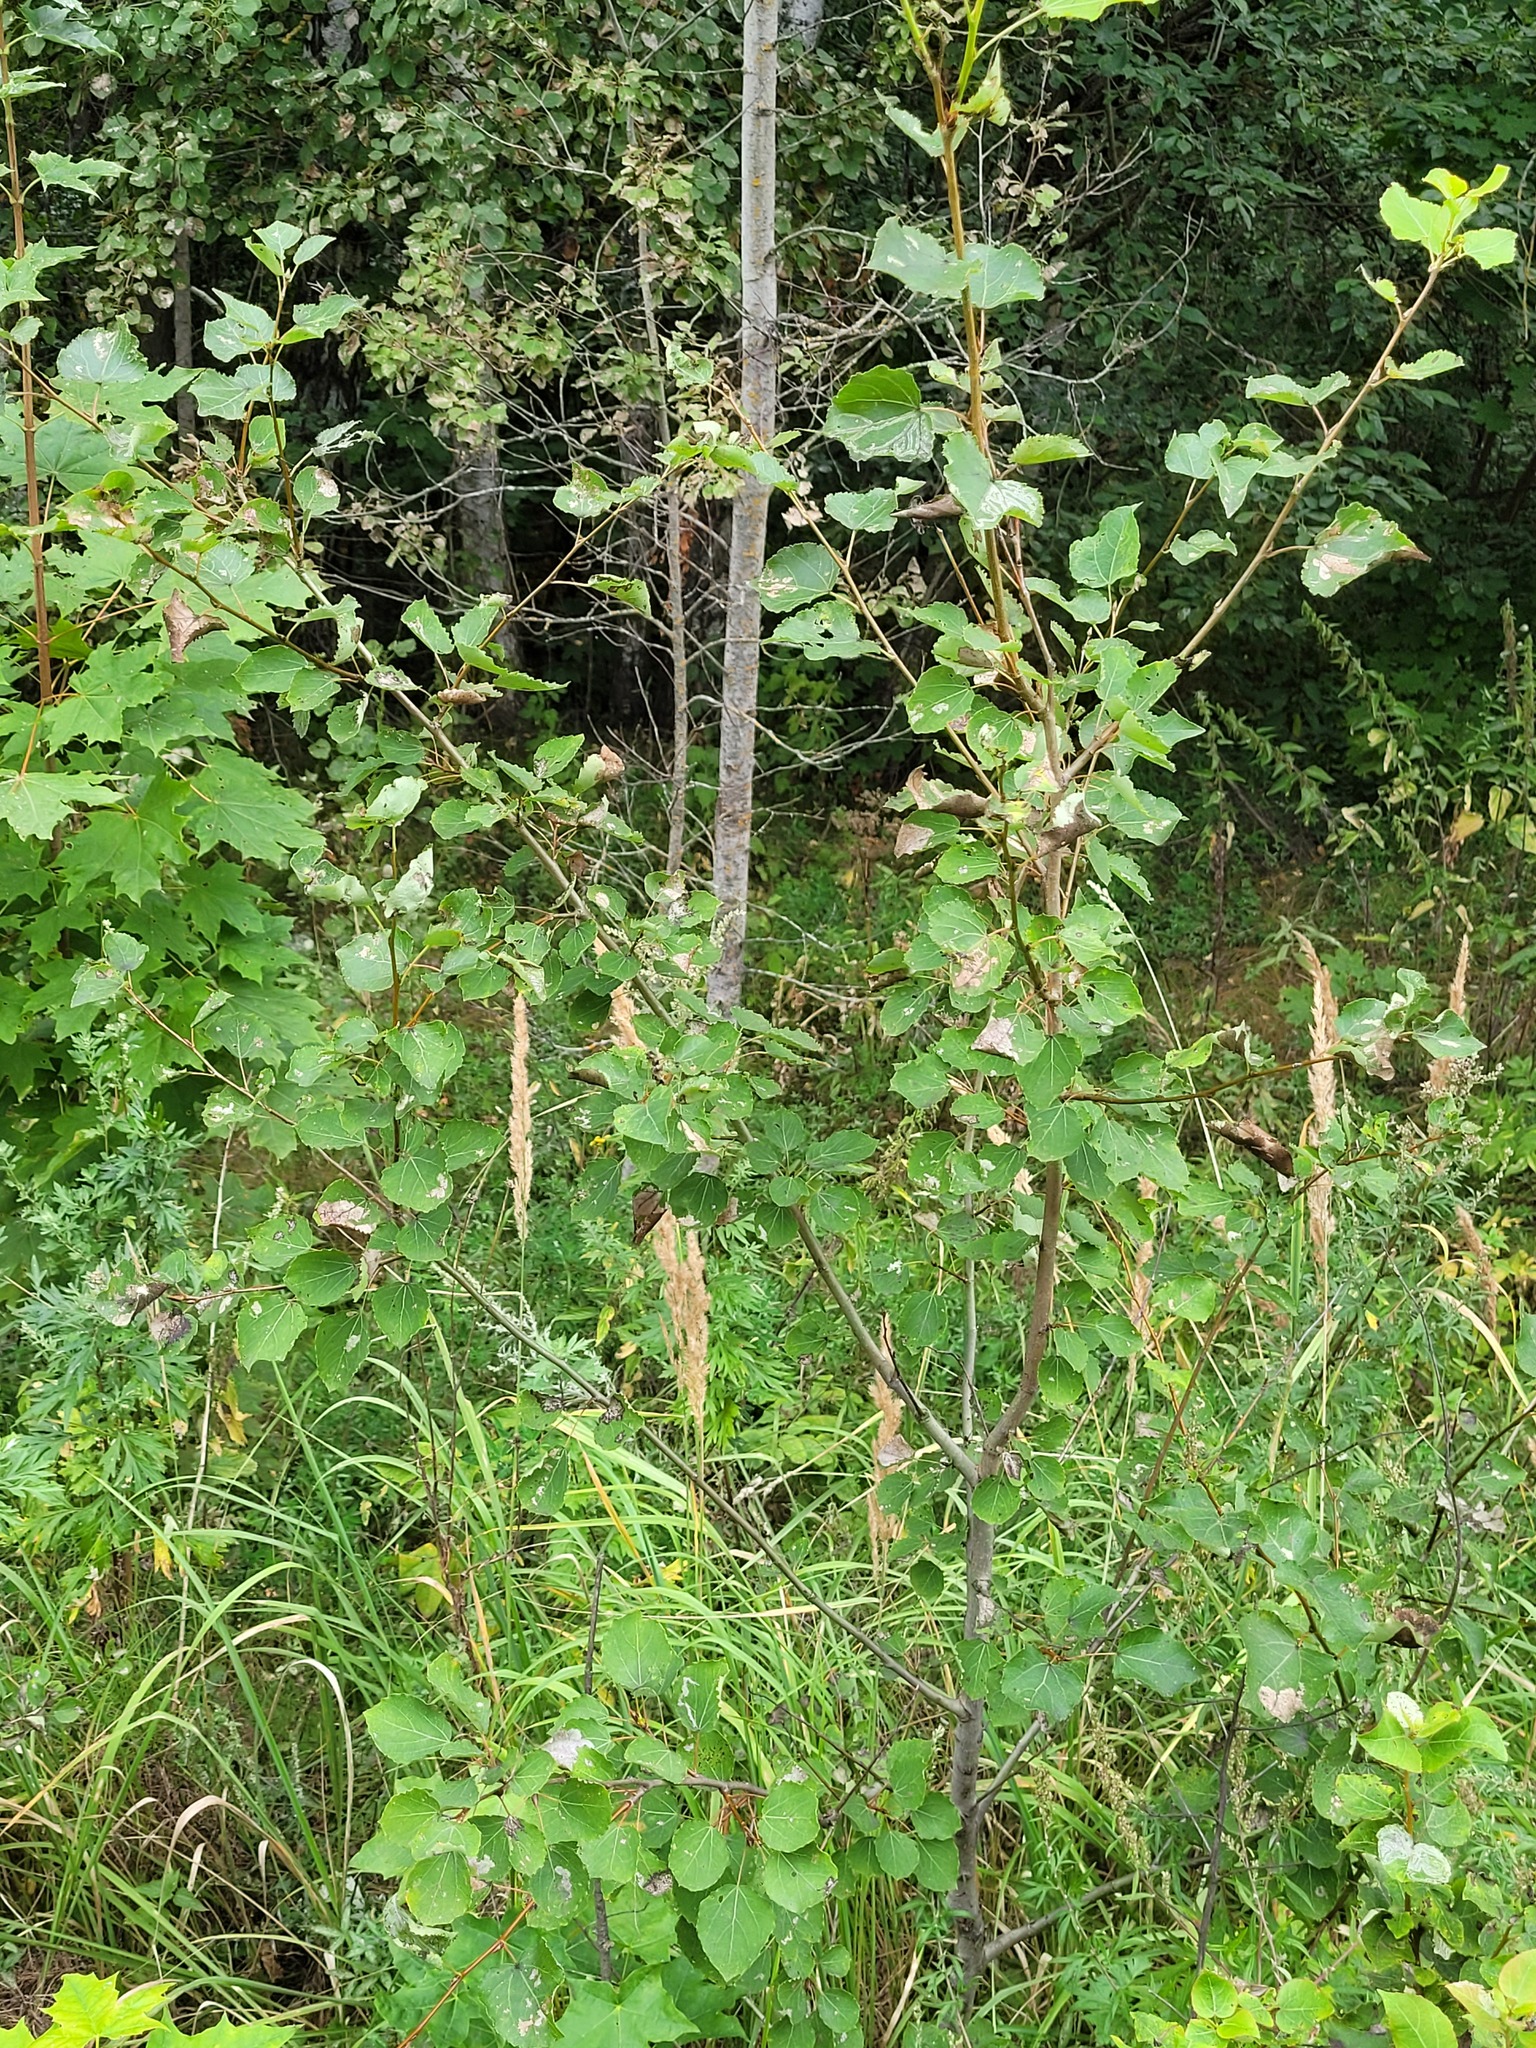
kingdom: Plantae
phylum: Tracheophyta
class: Magnoliopsida
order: Malpighiales
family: Salicaceae
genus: Populus
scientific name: Populus tremula
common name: European aspen
